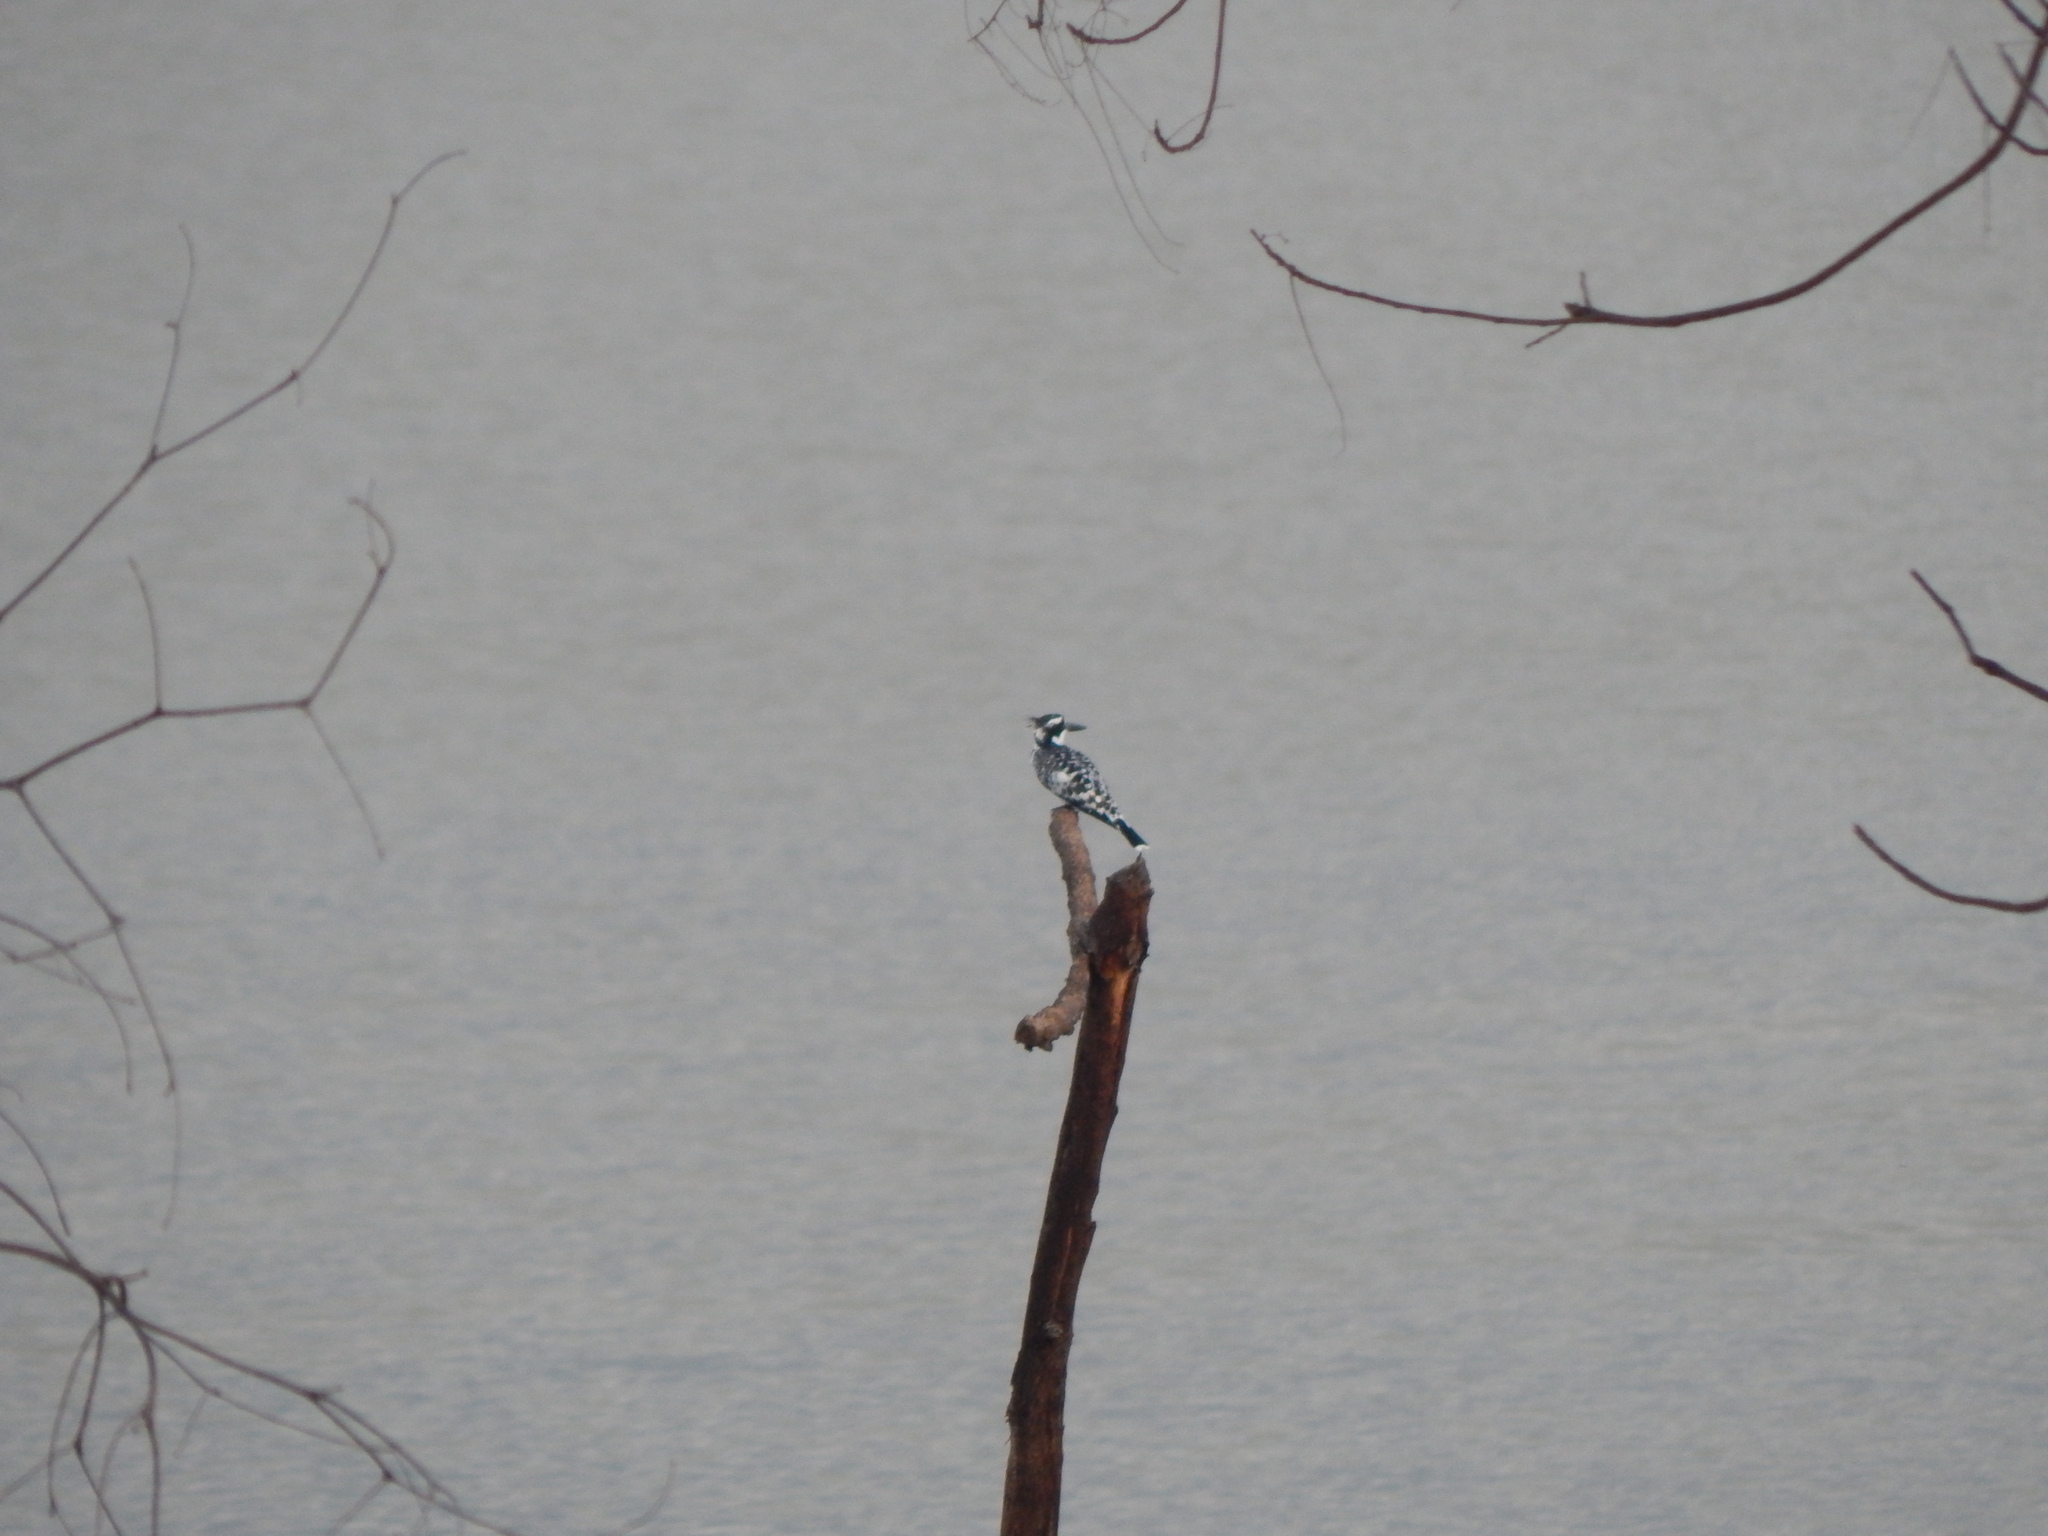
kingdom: Animalia
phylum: Chordata
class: Aves
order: Coraciiformes
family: Alcedinidae
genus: Ceryle
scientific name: Ceryle rudis
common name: Pied kingfisher
